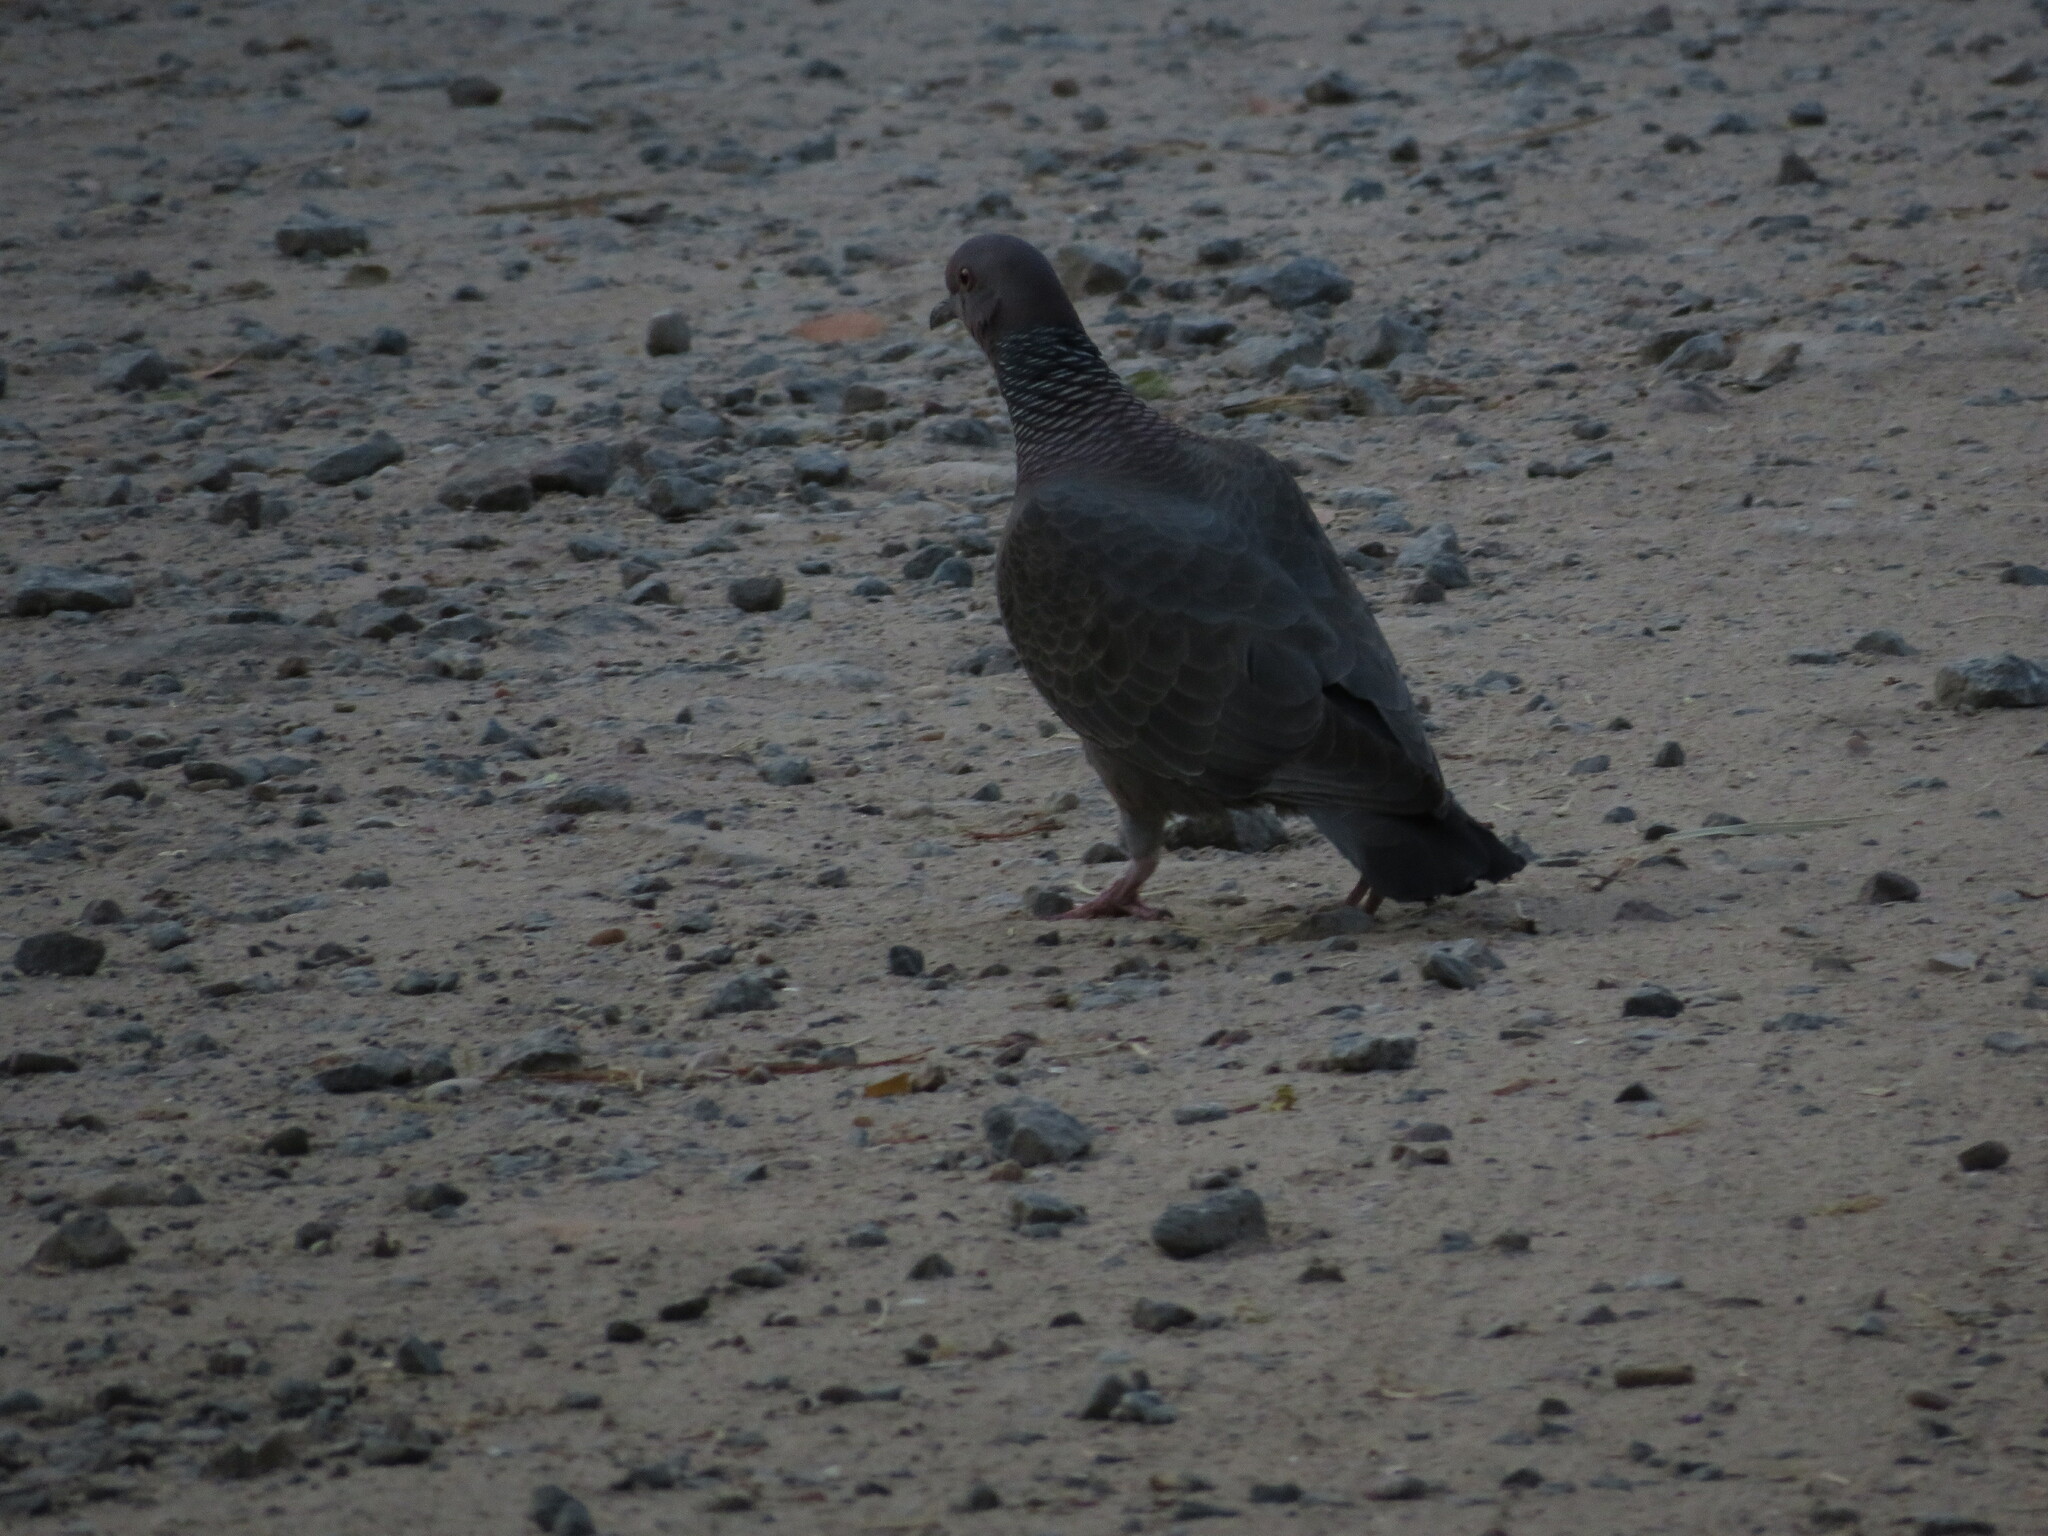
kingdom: Animalia
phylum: Chordata
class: Aves
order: Columbiformes
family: Columbidae
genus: Patagioenas
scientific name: Patagioenas picazuro
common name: Picazuro pigeon
